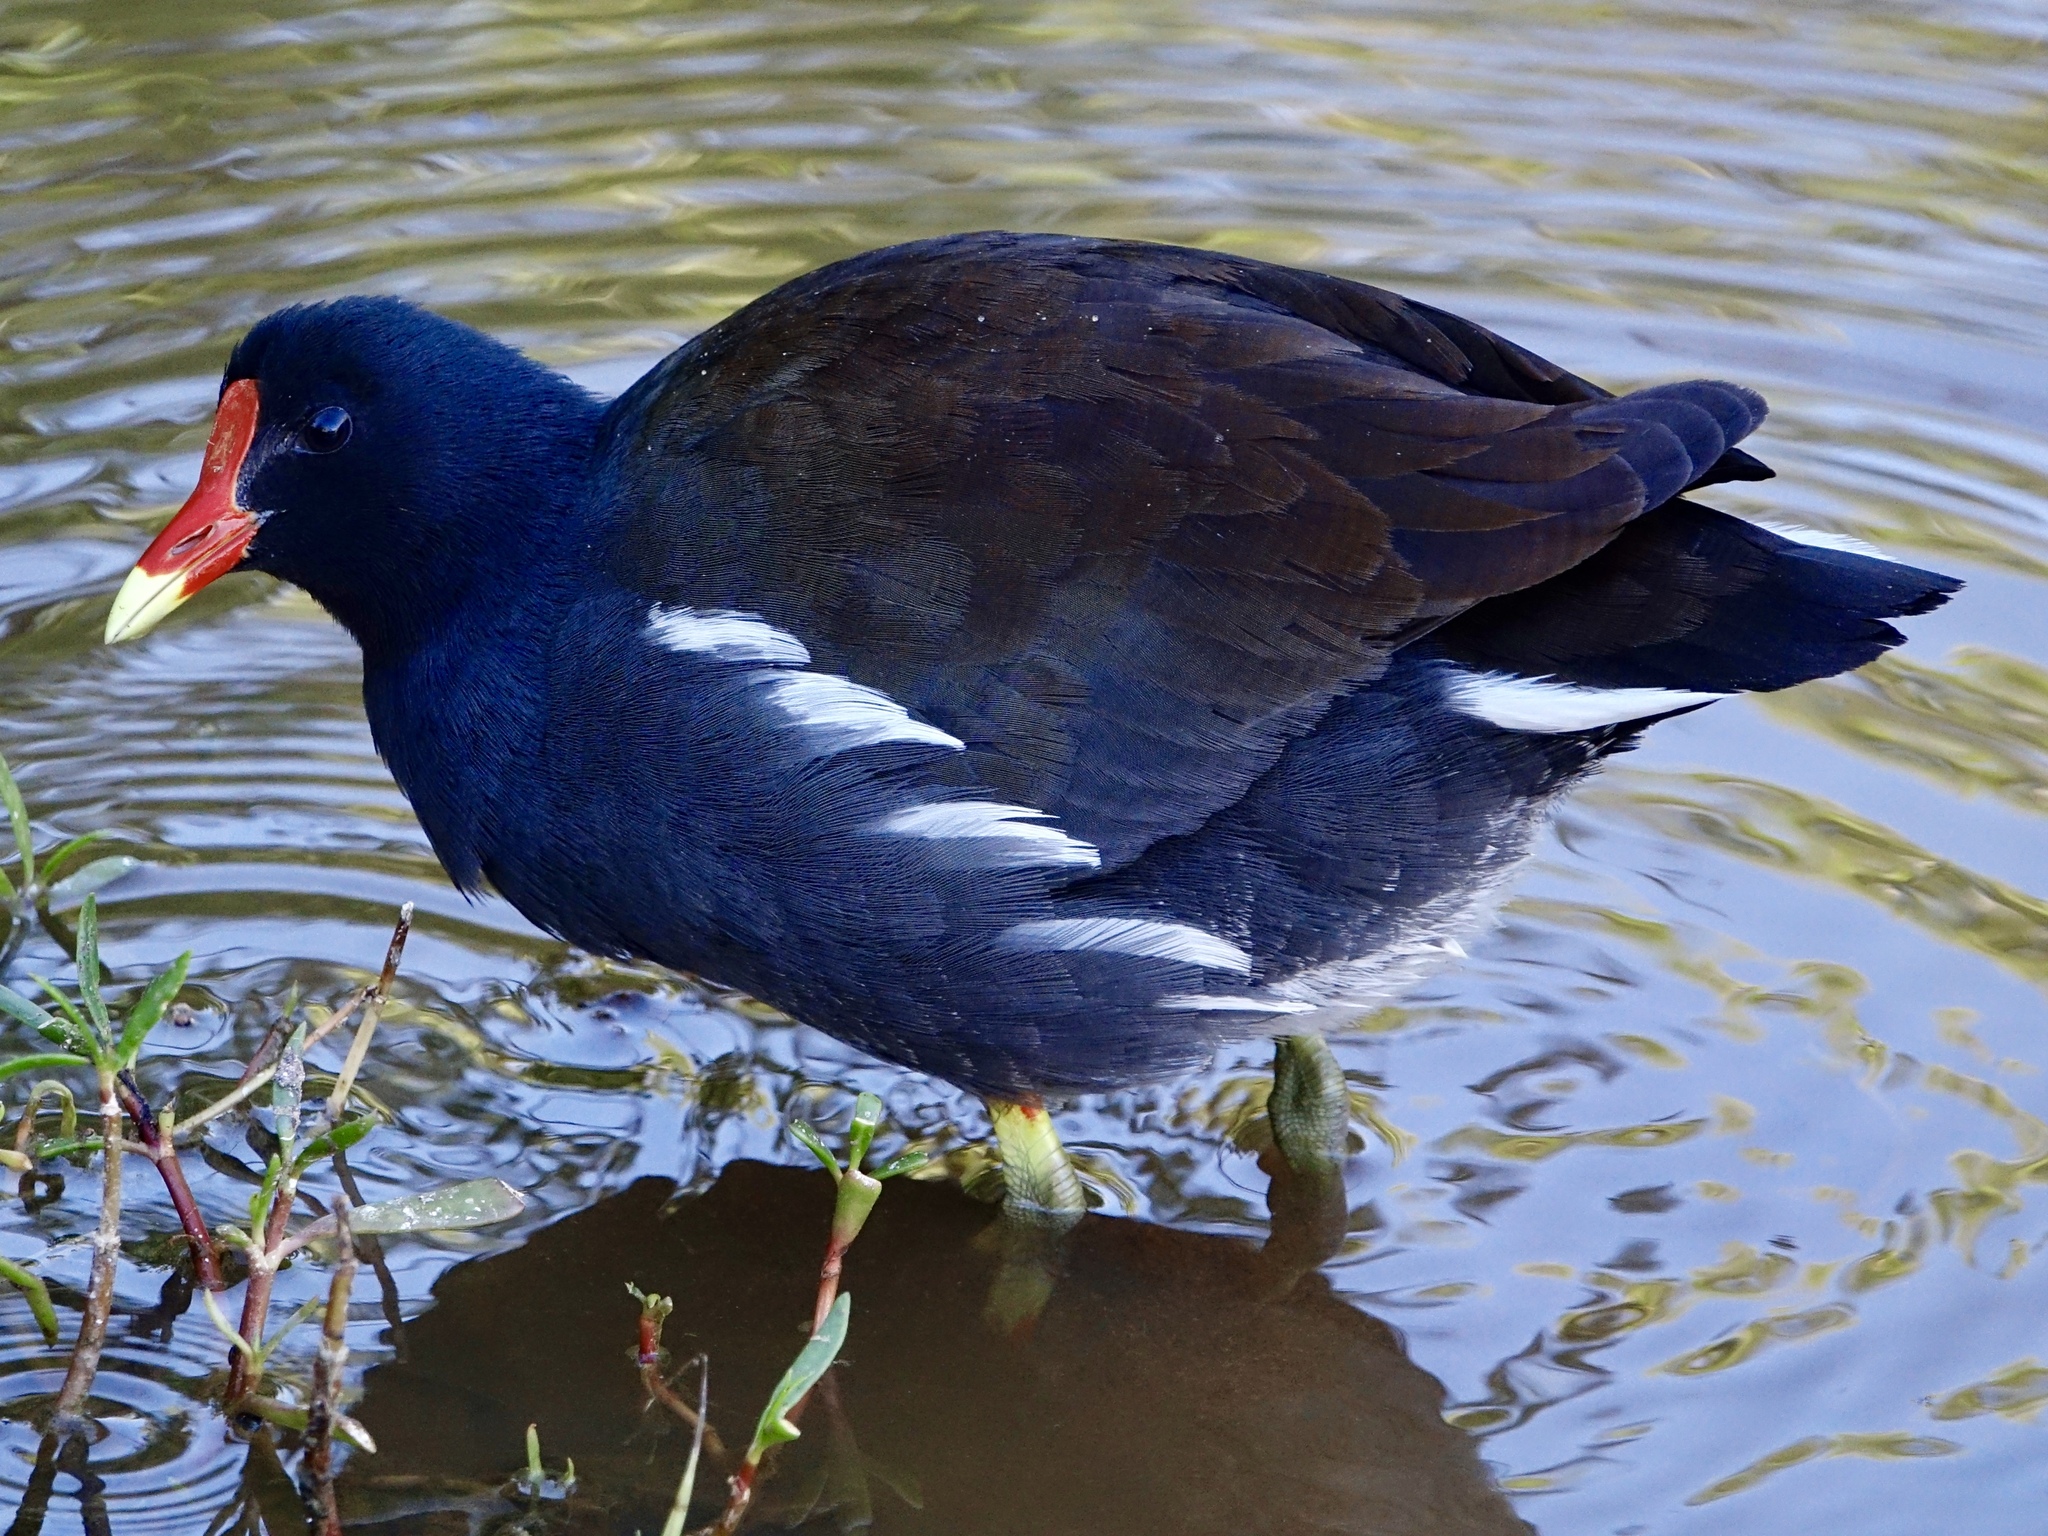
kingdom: Animalia
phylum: Chordata
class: Aves
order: Gruiformes
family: Rallidae
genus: Gallinula
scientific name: Gallinula chloropus
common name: Common moorhen
